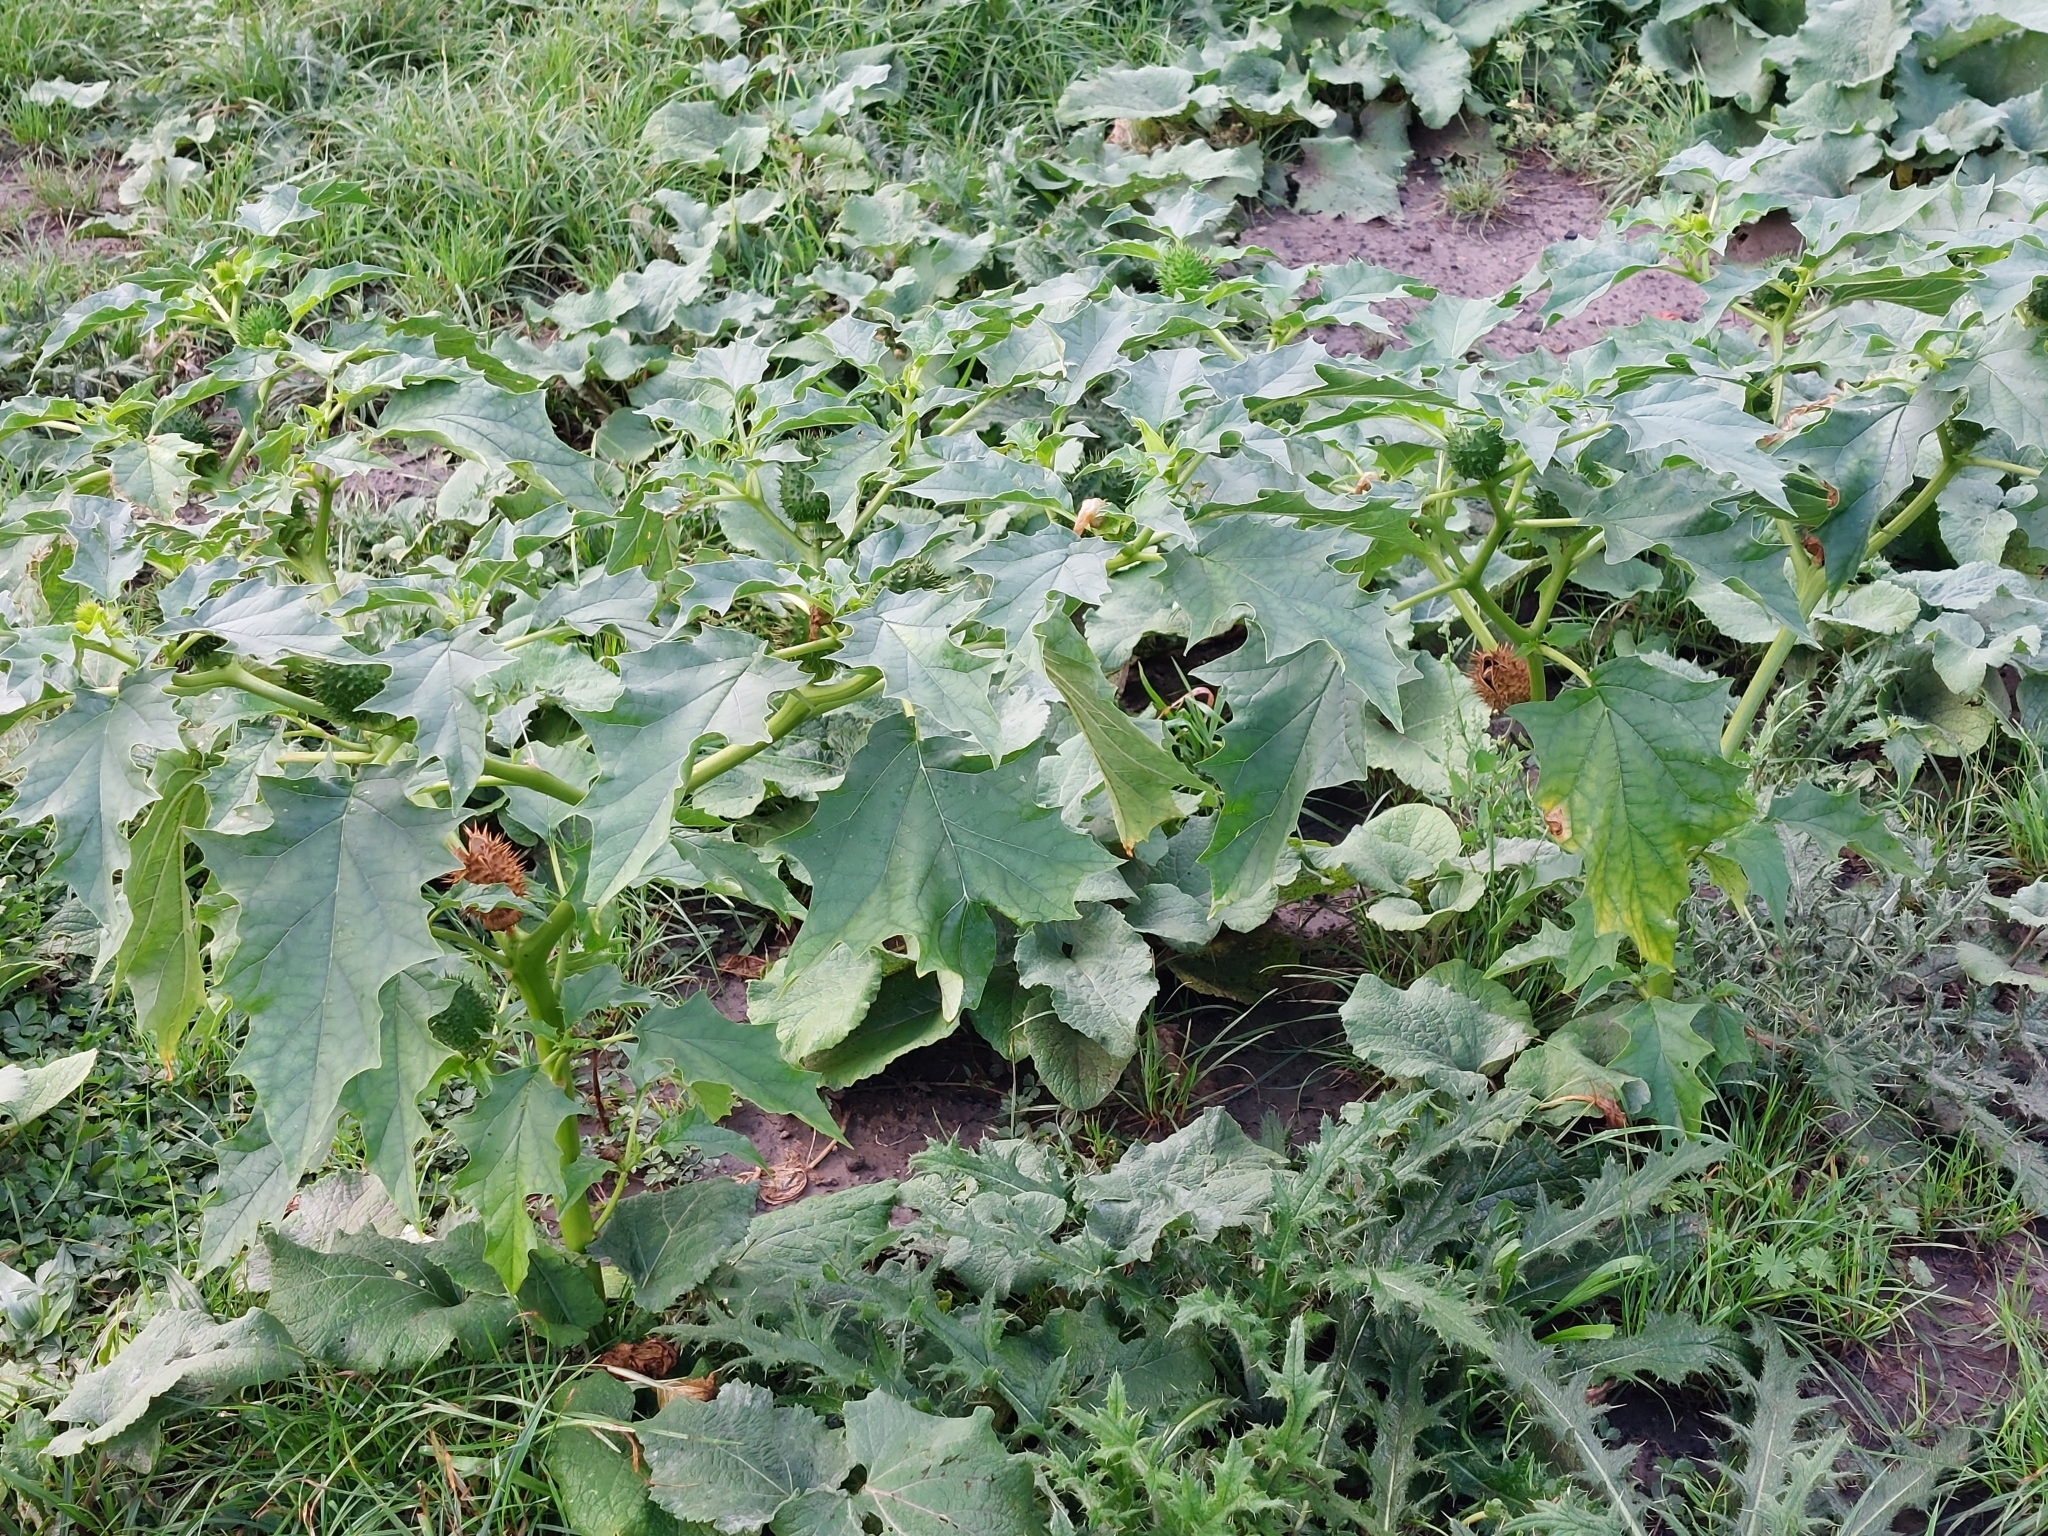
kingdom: Plantae
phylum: Tracheophyta
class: Magnoliopsida
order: Solanales
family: Solanaceae
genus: Datura
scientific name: Datura stramonium
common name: Thorn-apple
